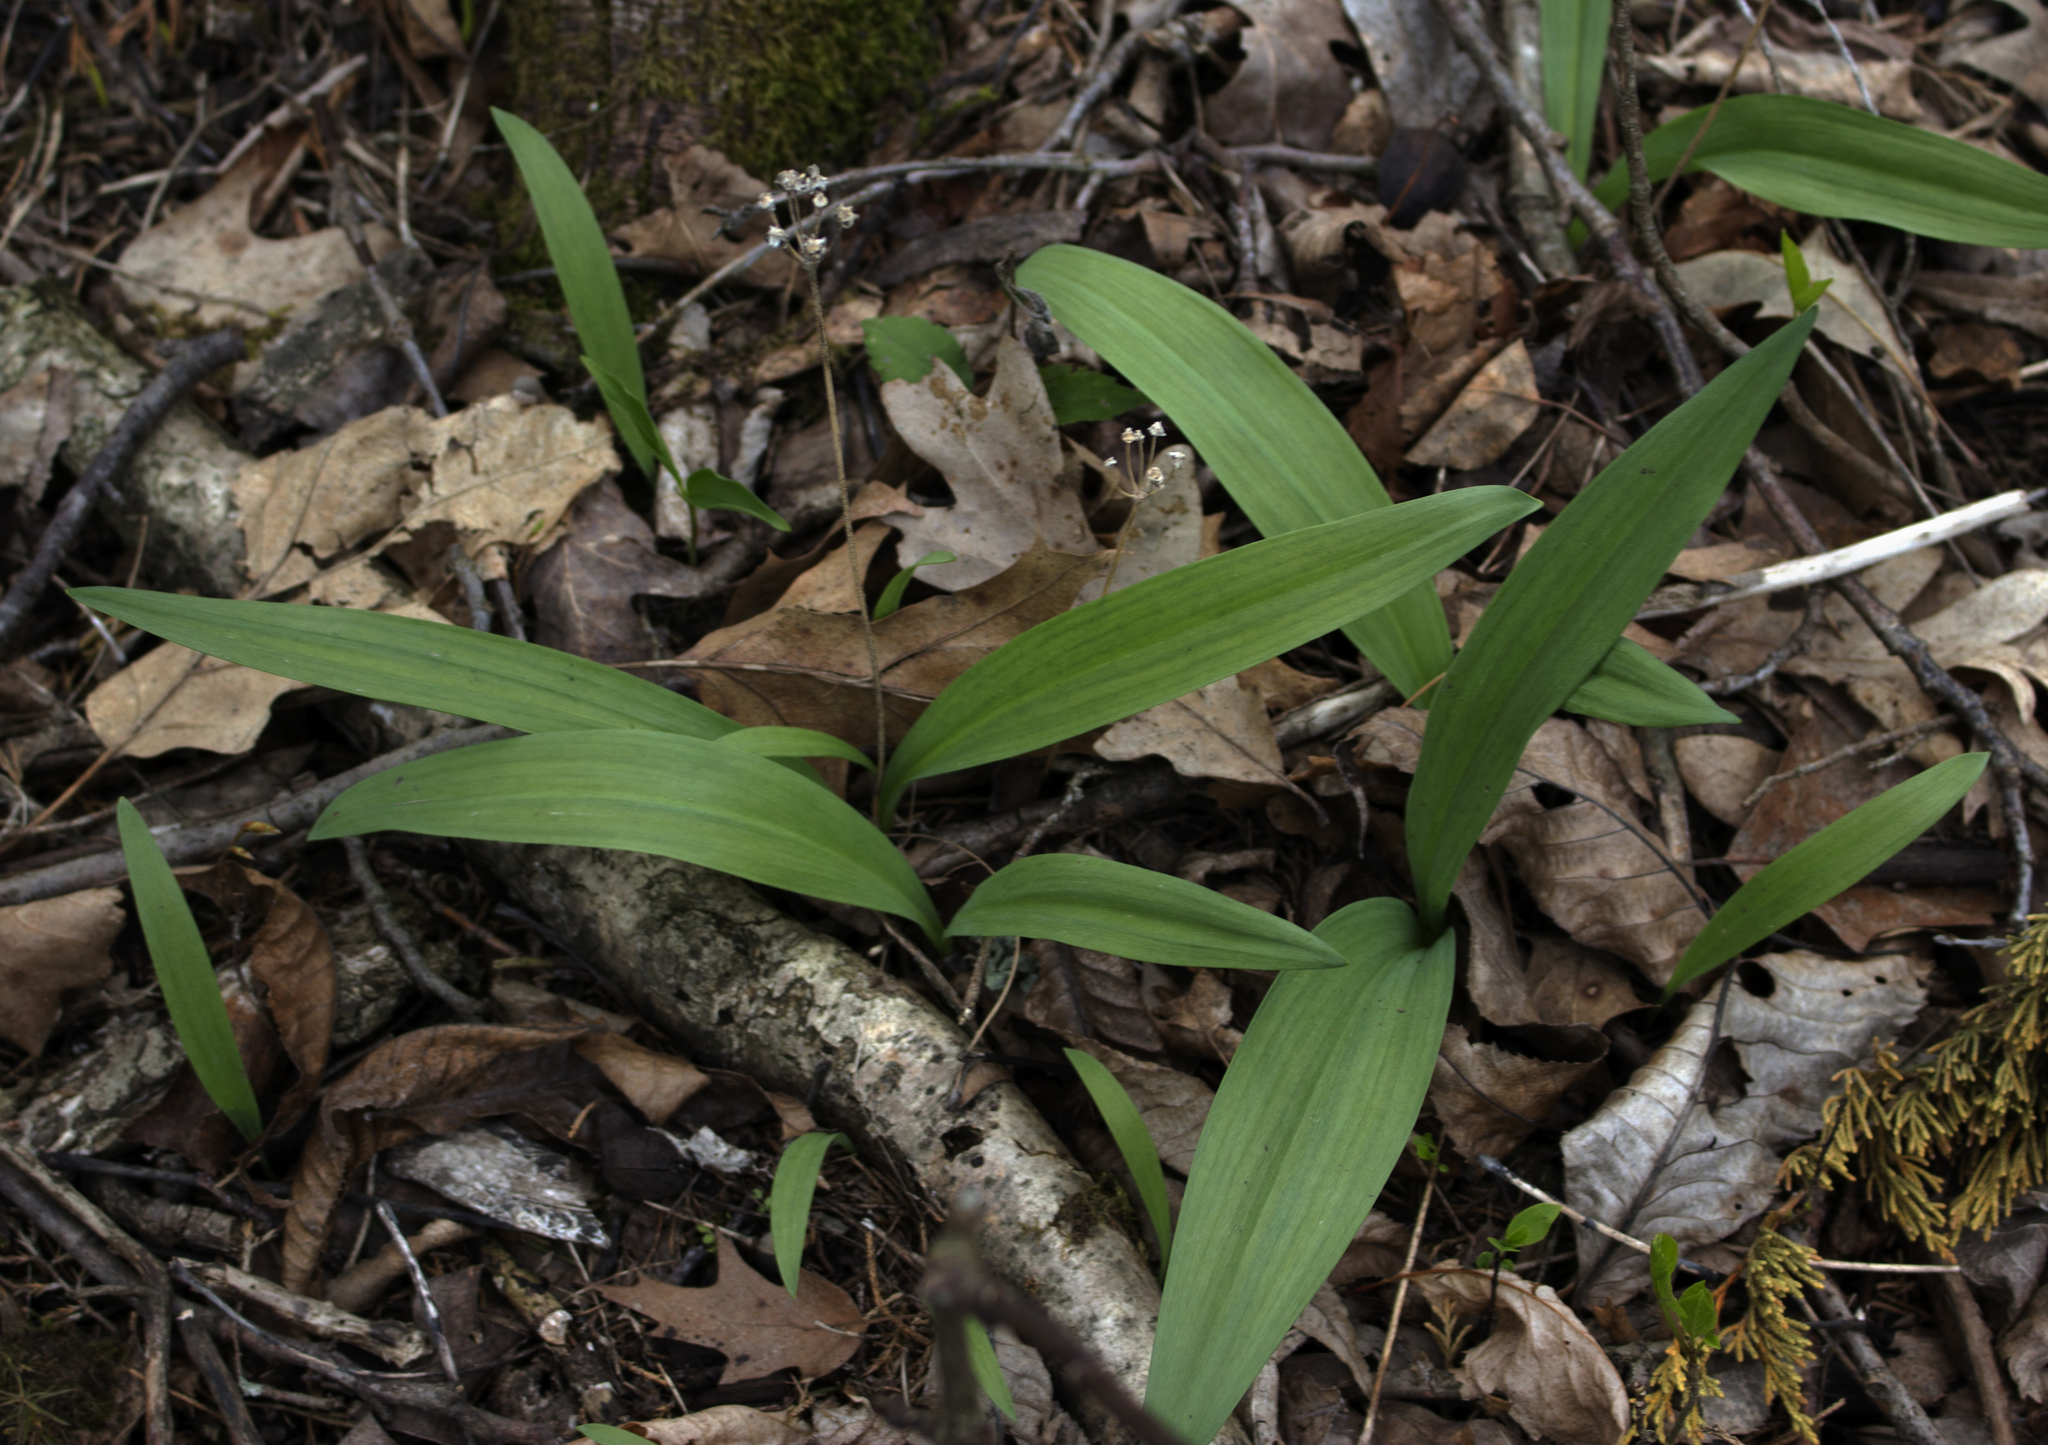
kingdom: Plantae
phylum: Tracheophyta
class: Liliopsida
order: Asparagales
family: Amaryllidaceae
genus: Allium
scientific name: Allium tricoccum
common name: Ramp
